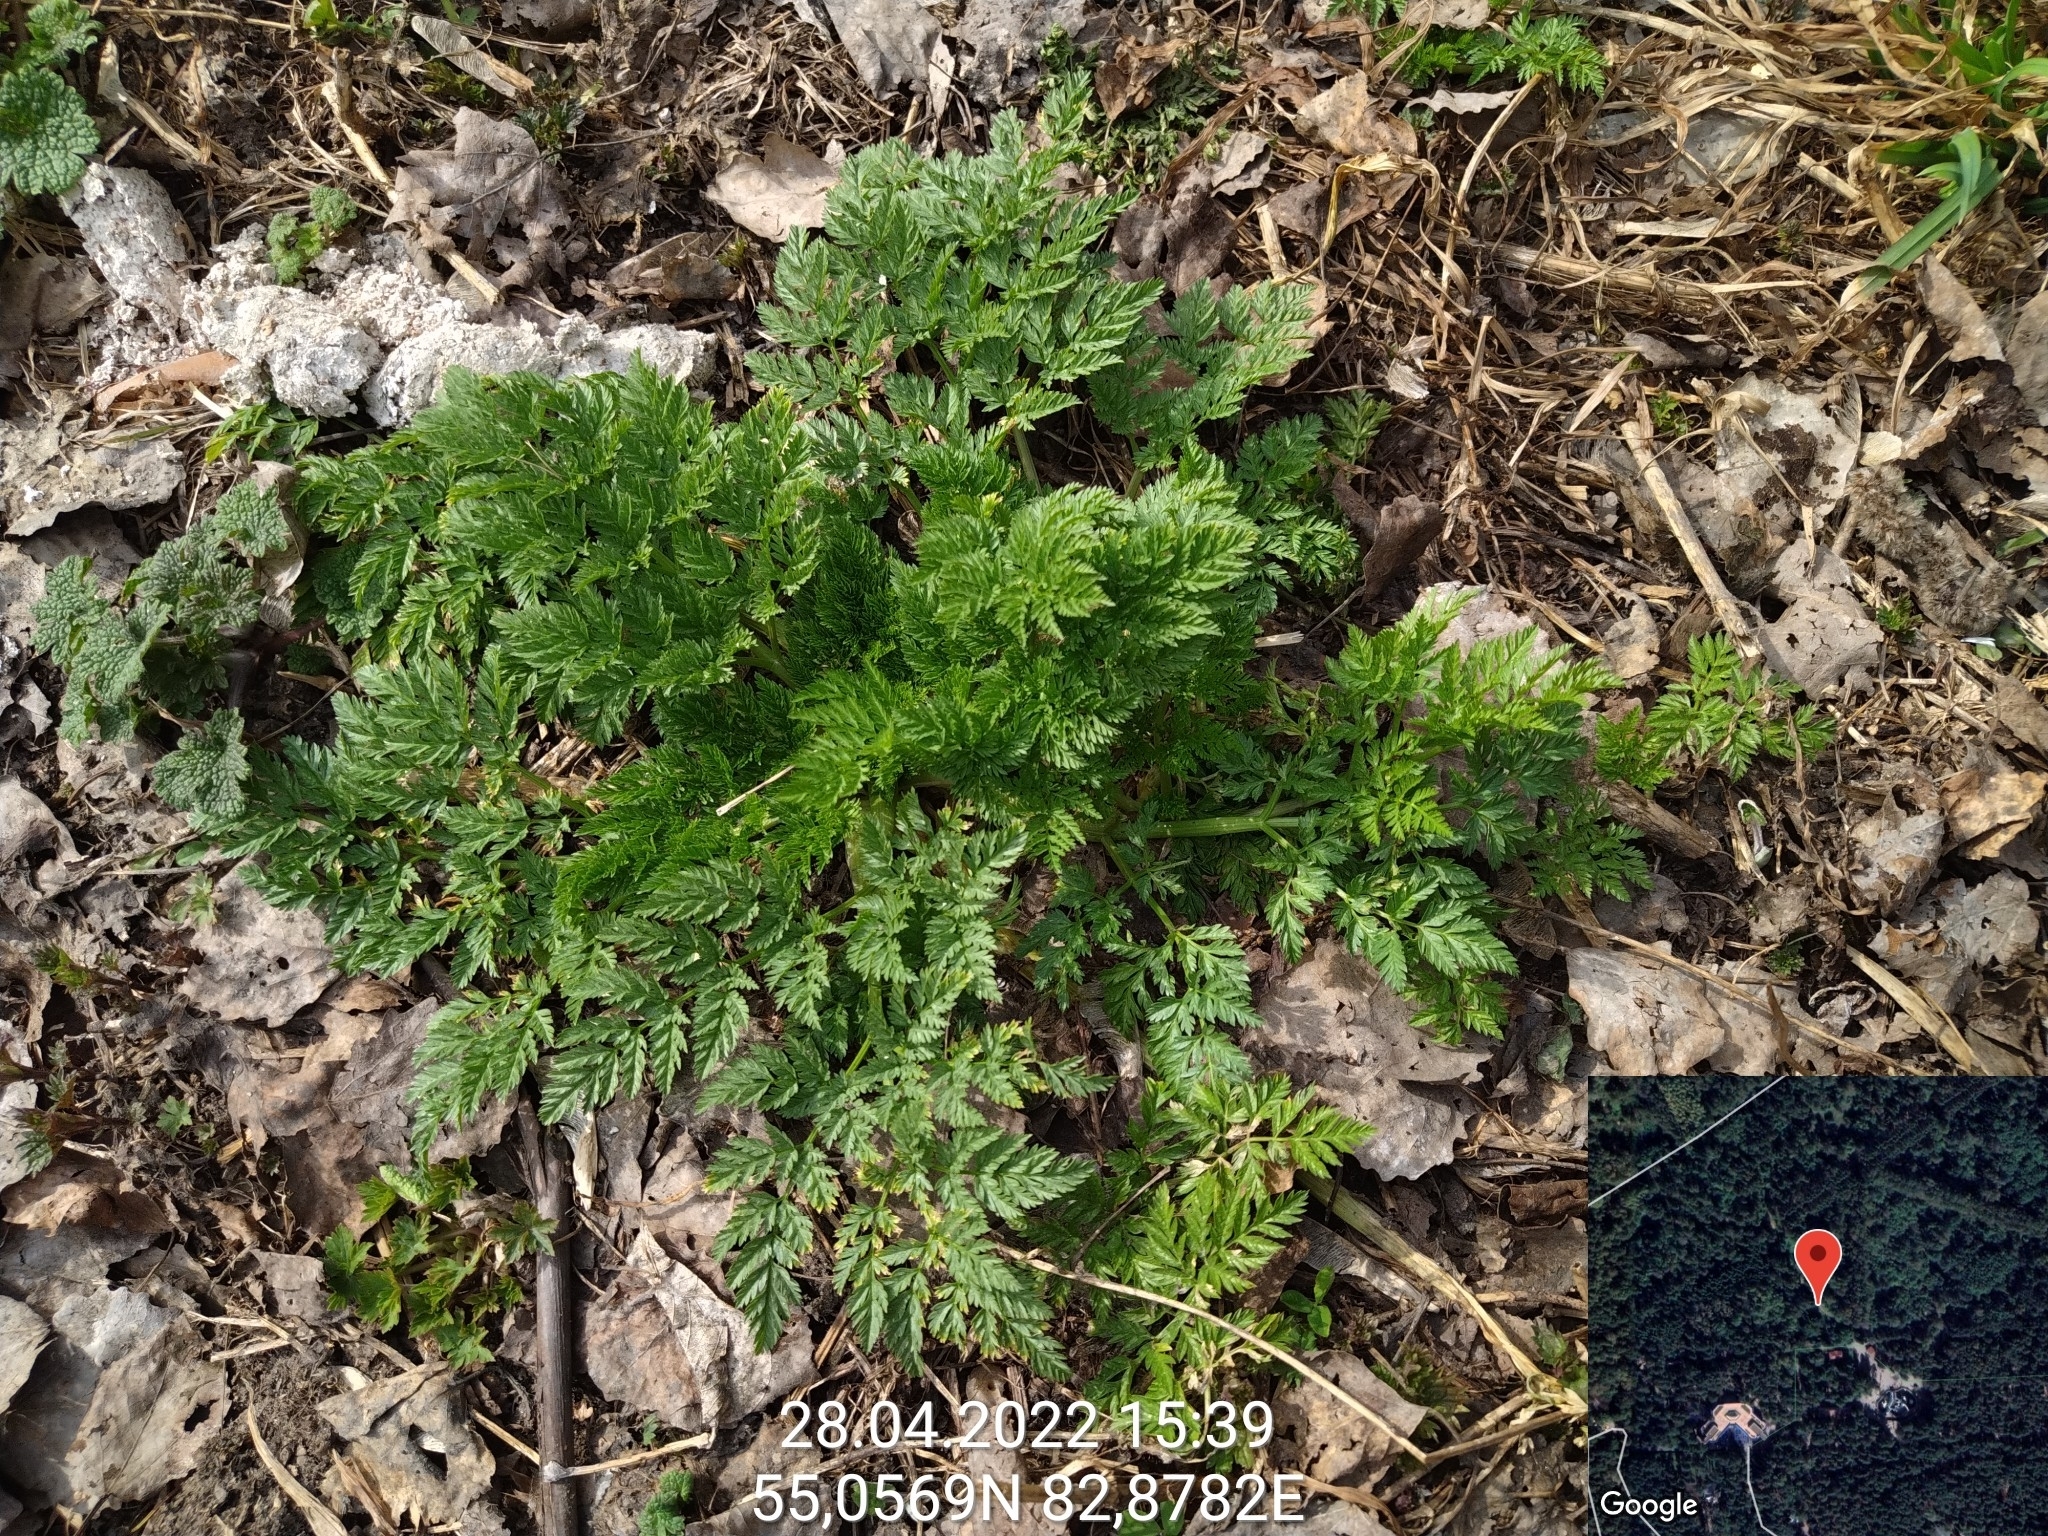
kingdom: Plantae
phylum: Tracheophyta
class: Magnoliopsida
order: Apiales
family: Apiaceae
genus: Anthriscus
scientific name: Anthriscus sylvestris
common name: Cow parsley
